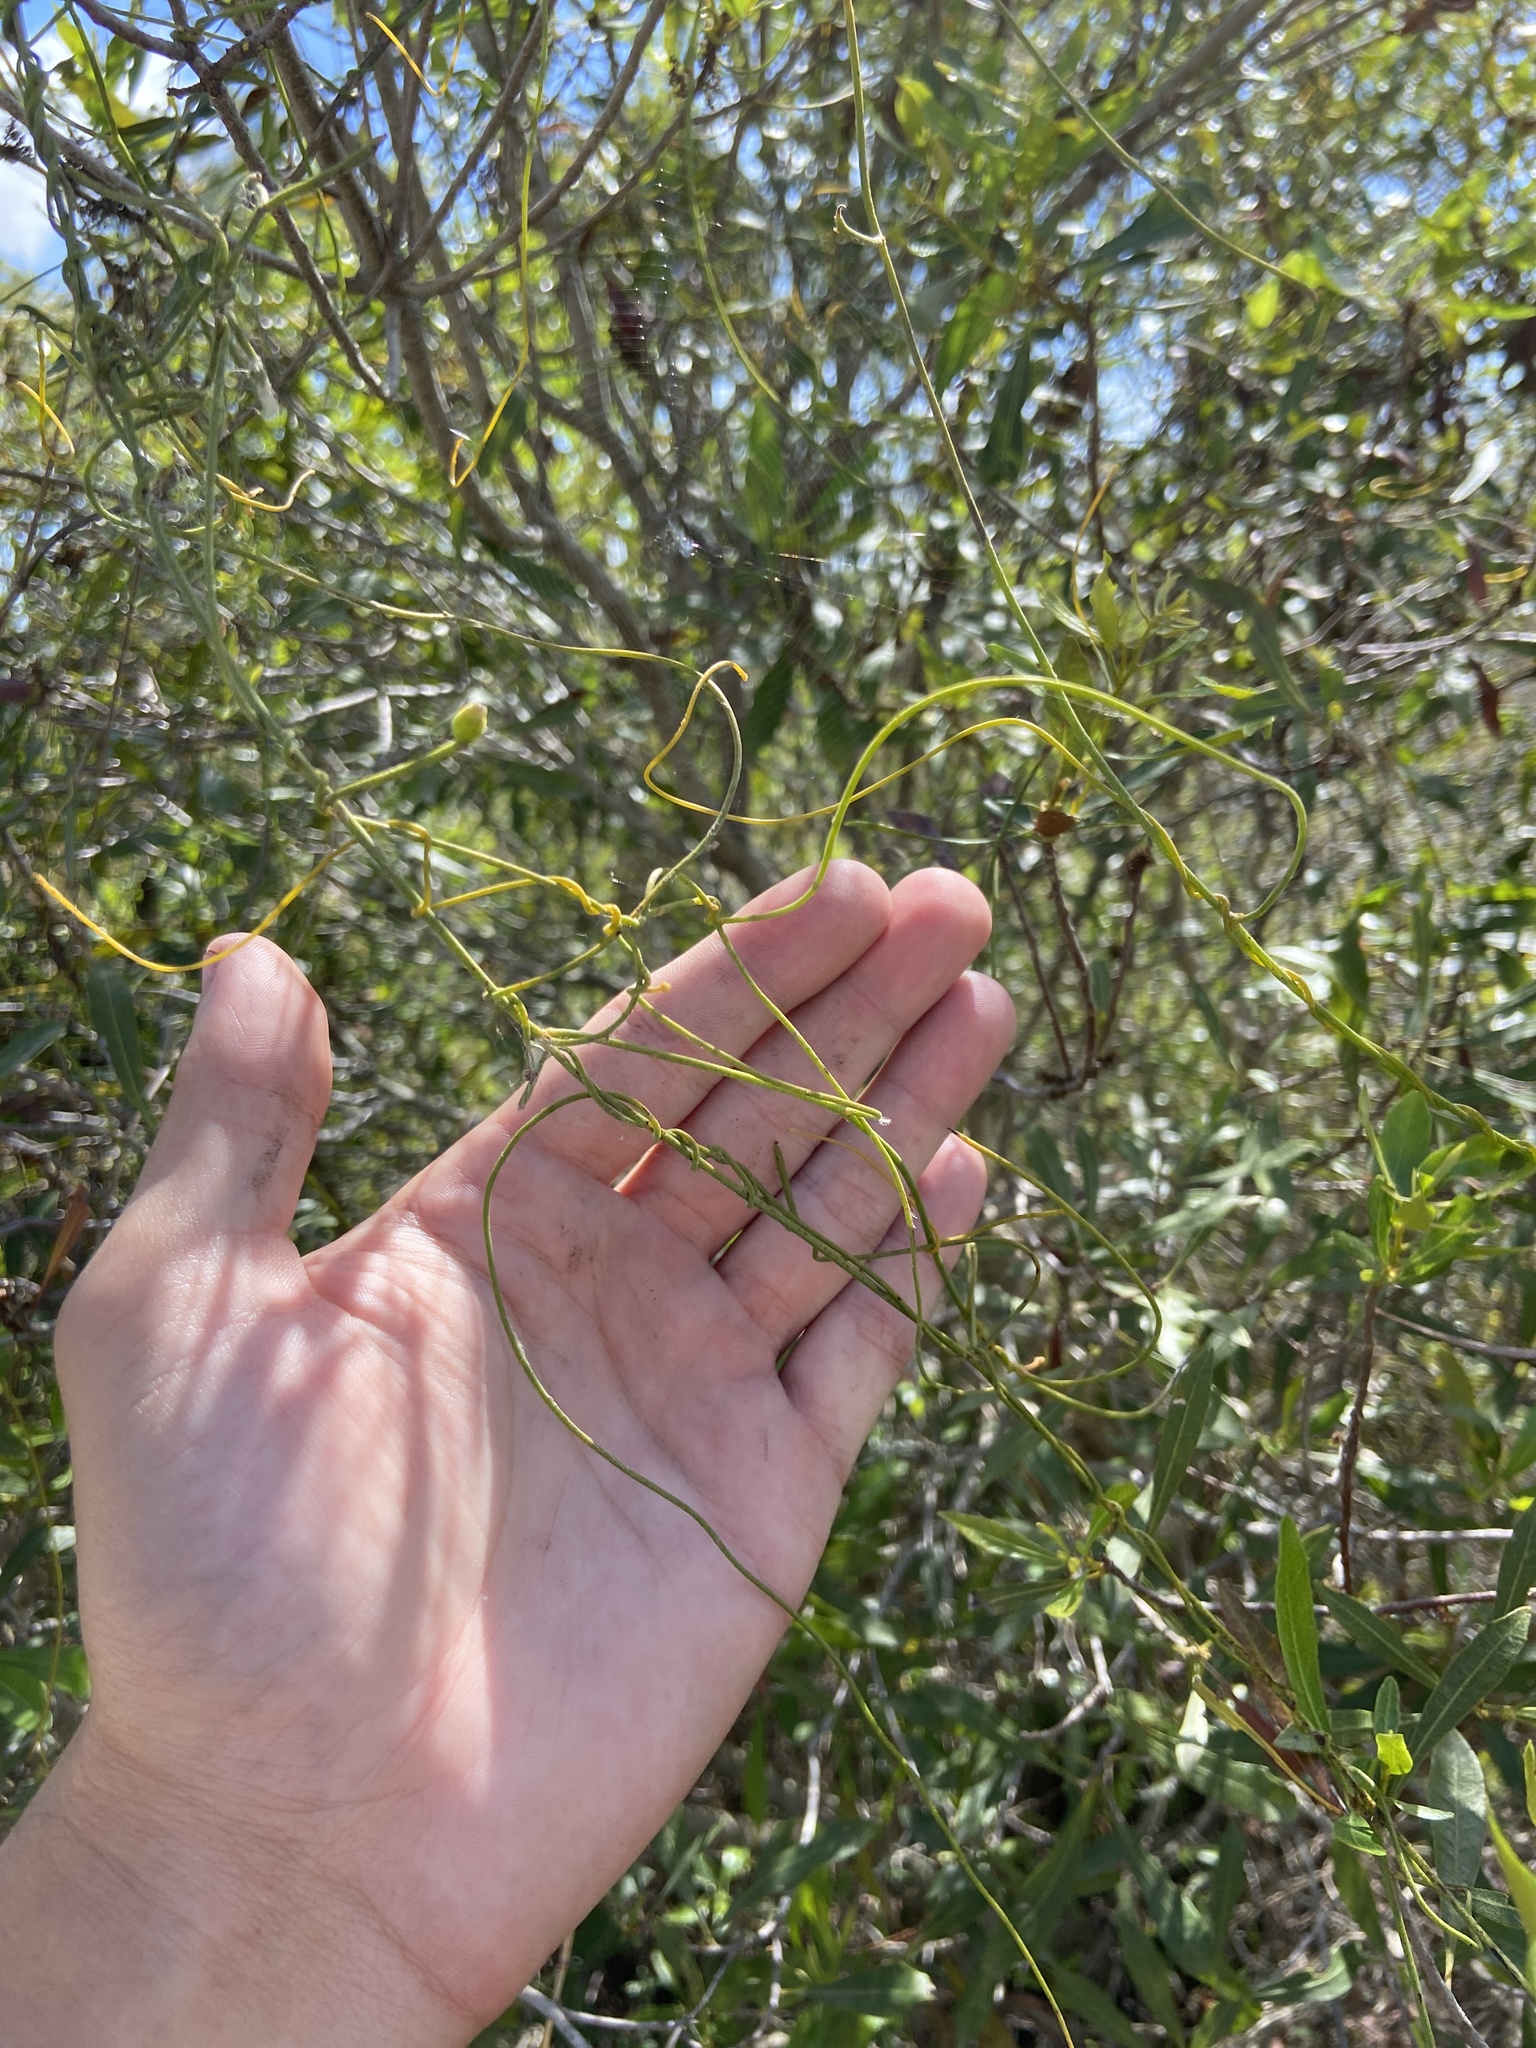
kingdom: Plantae
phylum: Tracheophyta
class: Magnoliopsida
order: Laurales
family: Lauraceae
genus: Cassytha
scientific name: Cassytha filiformis
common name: Dodder-laurel
